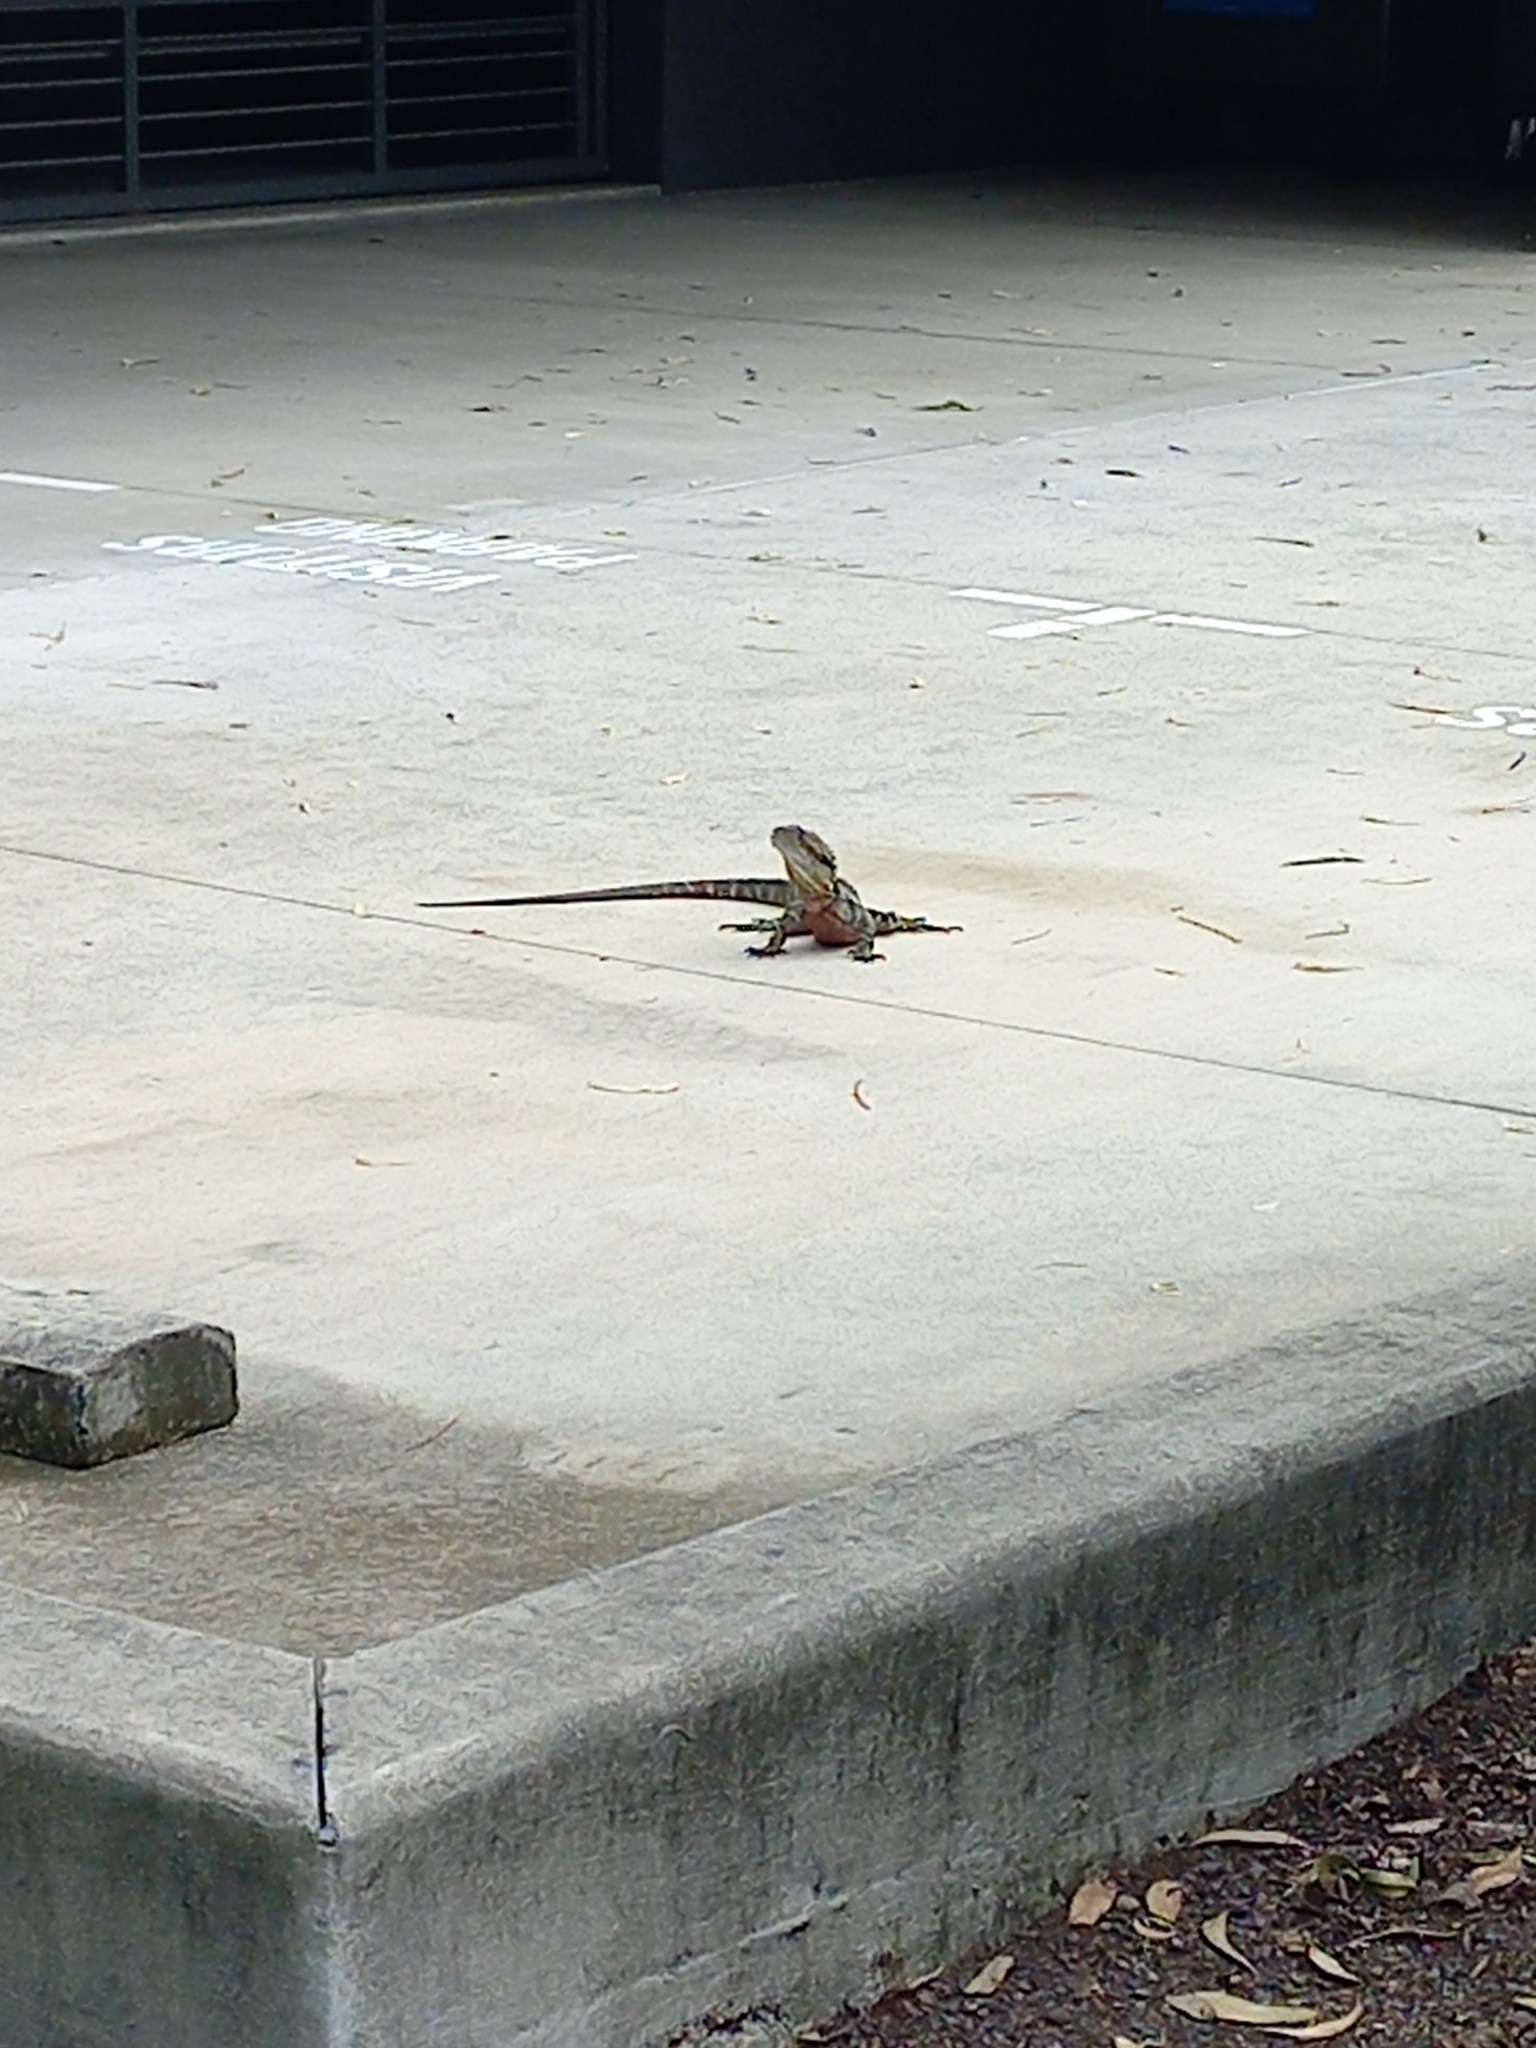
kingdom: Animalia
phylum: Chordata
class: Squamata
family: Agamidae
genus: Intellagama
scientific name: Intellagama lesueurii
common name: Eastern water dragon
